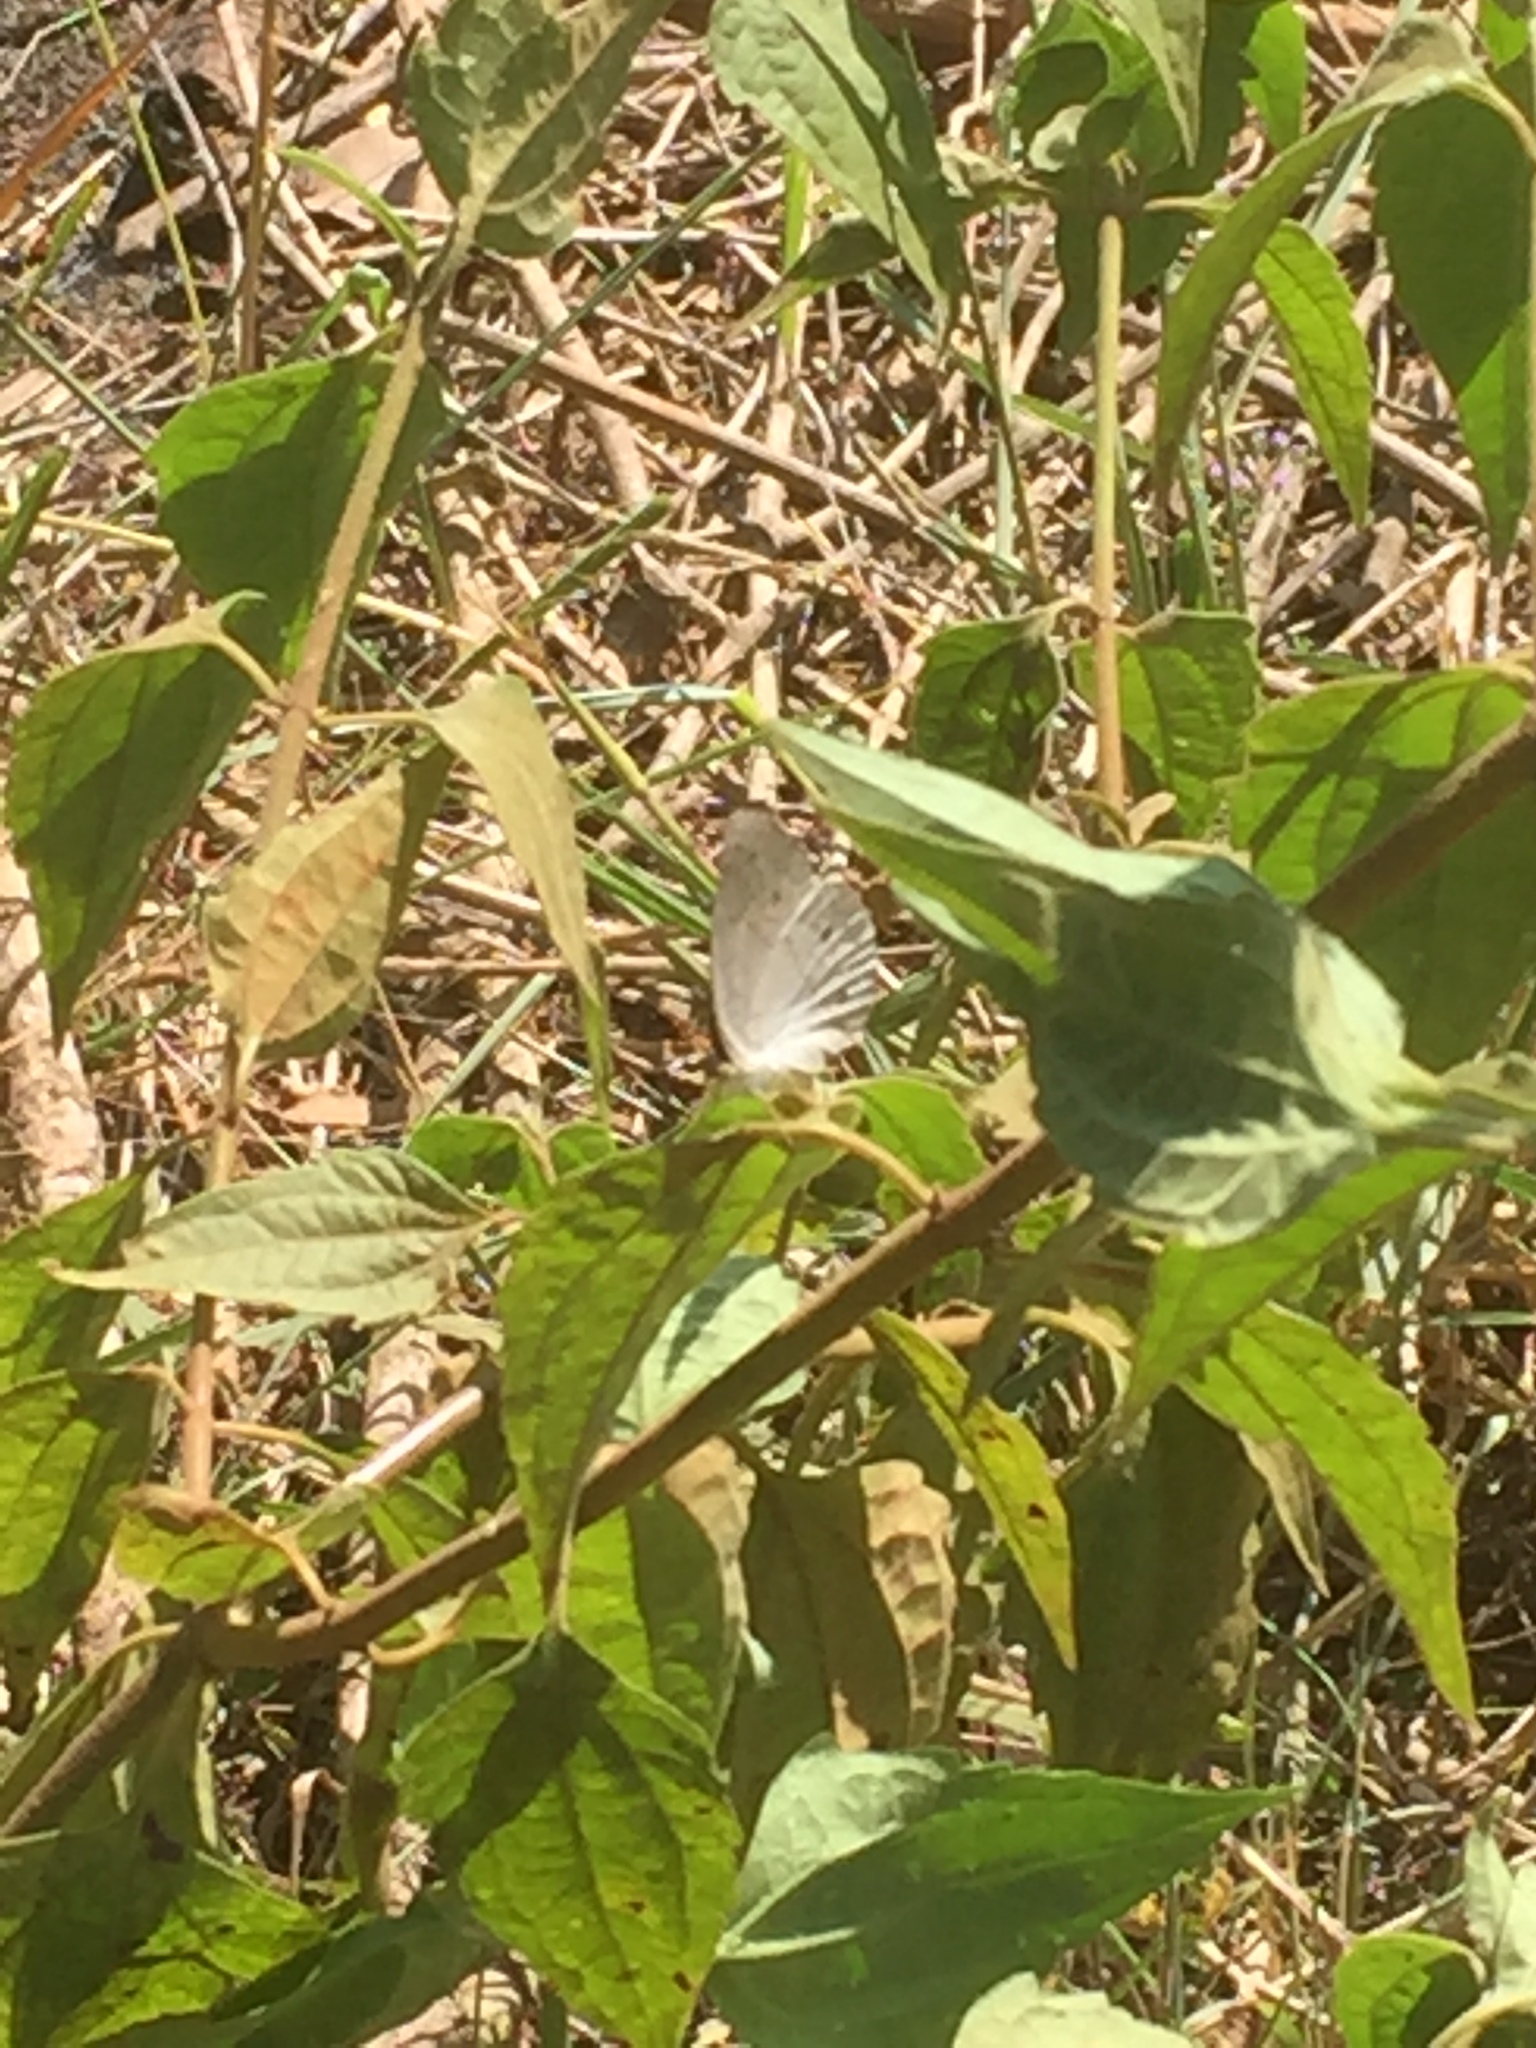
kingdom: Animalia
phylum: Arthropoda
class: Insecta
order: Lepidoptera
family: Nymphalidae
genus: Junonia
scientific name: Junonia atlites
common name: Grey pansy
